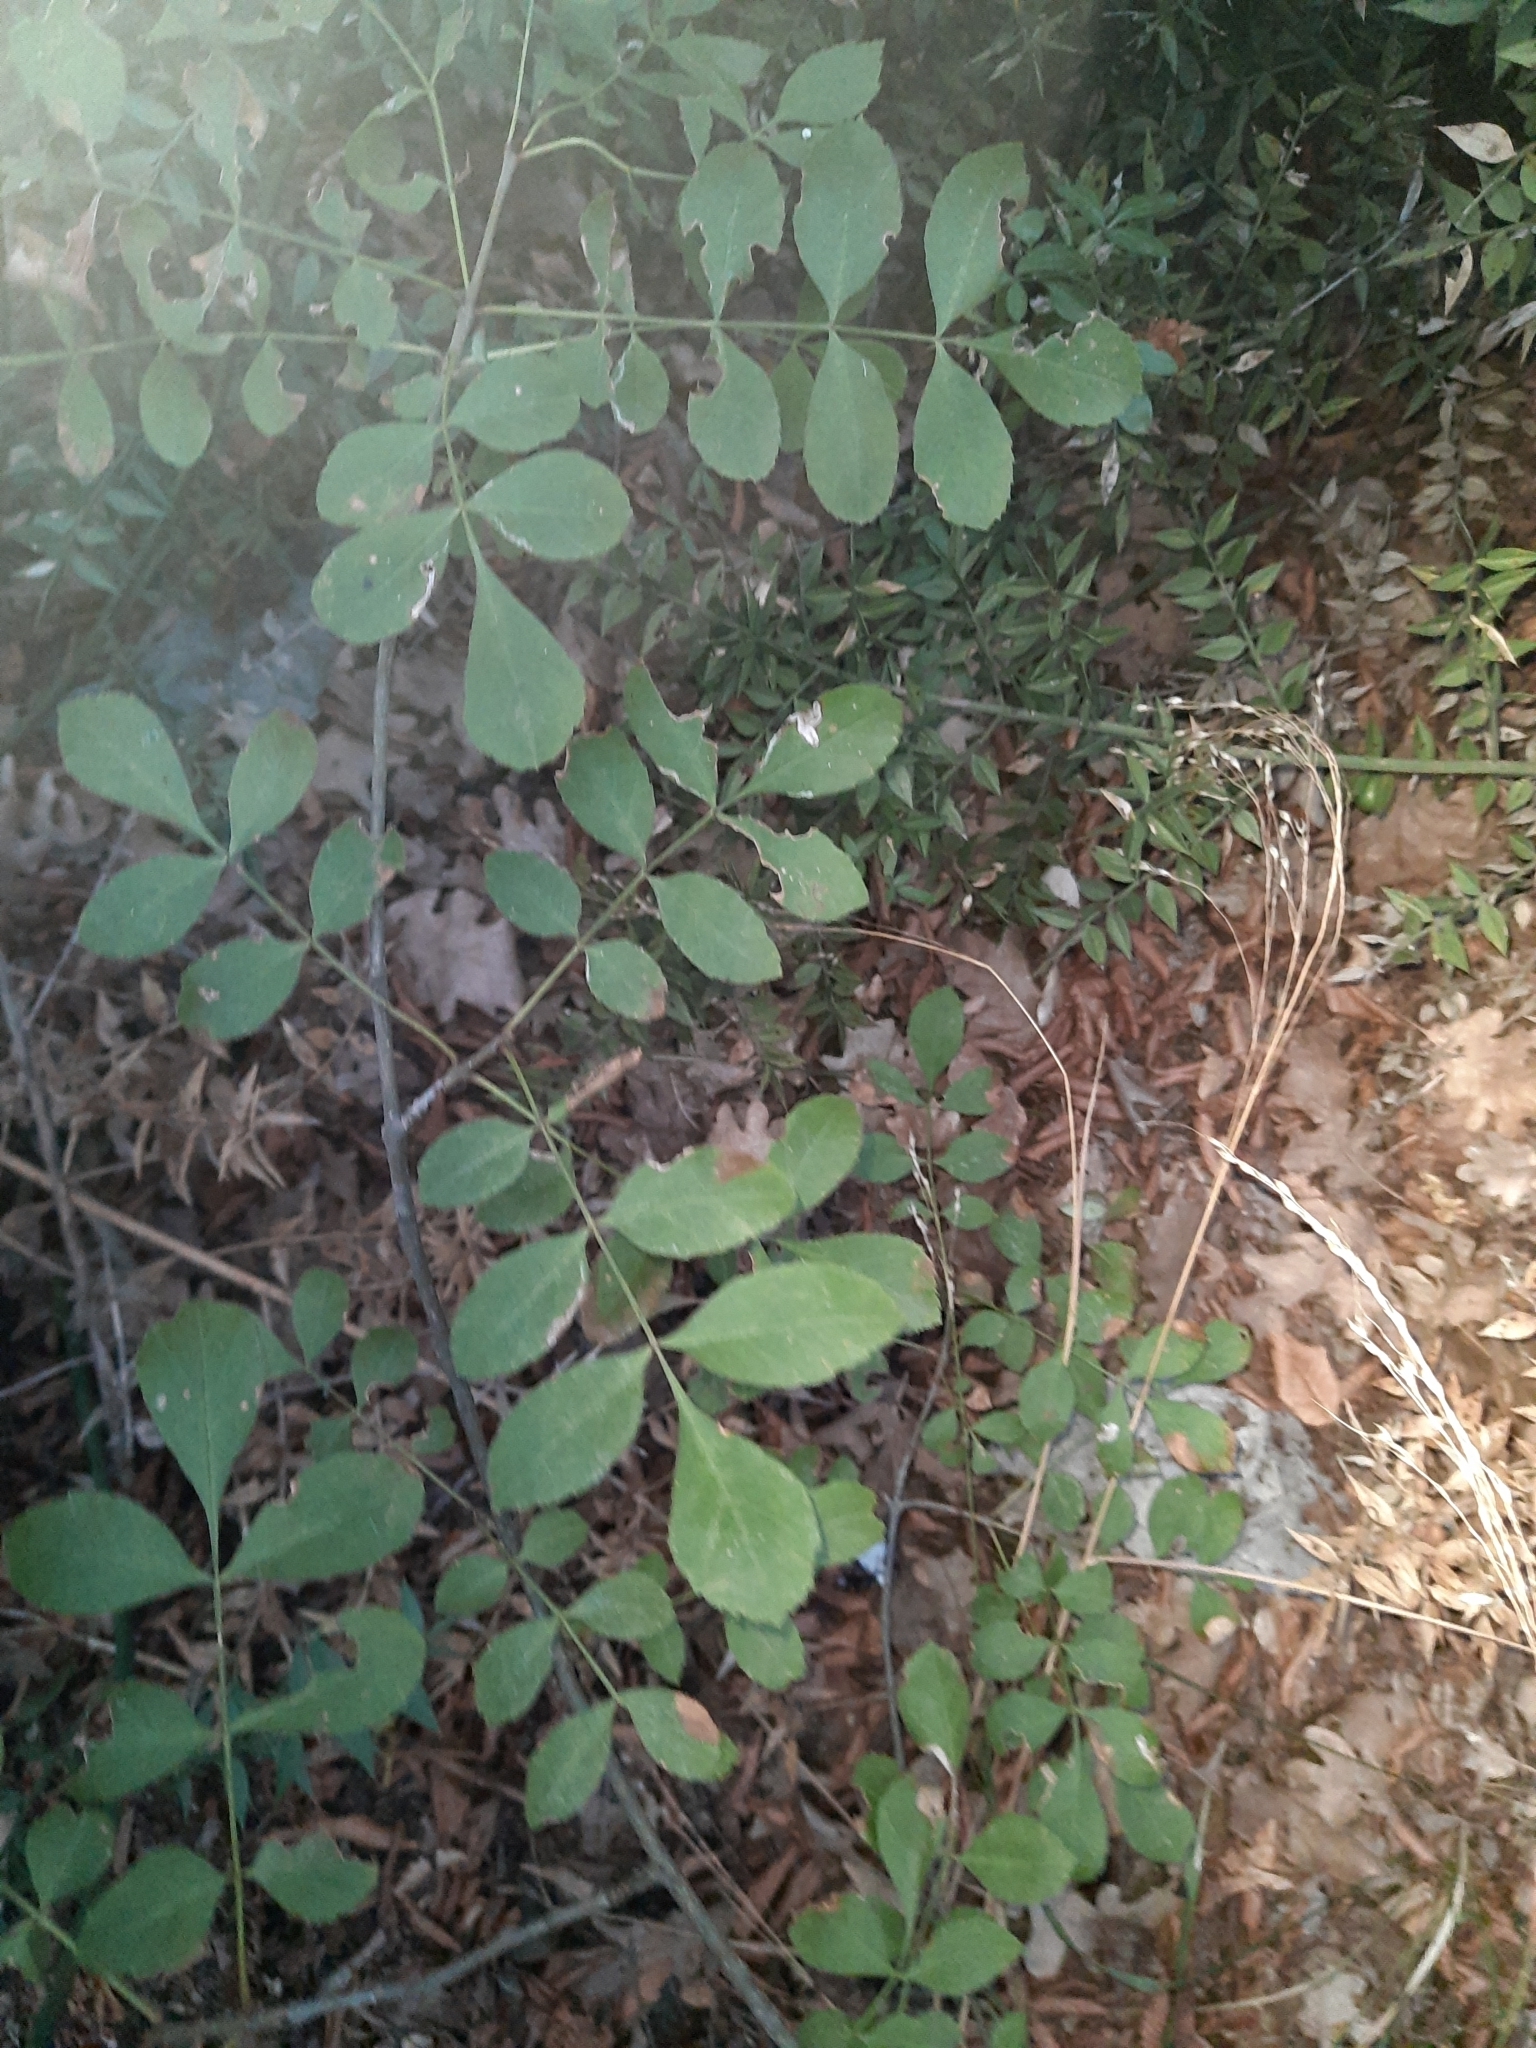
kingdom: Plantae
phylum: Tracheophyta
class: Magnoliopsida
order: Lamiales
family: Oleaceae
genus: Fraxinus
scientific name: Fraxinus angustifolia
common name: Narrow-leafed ash
